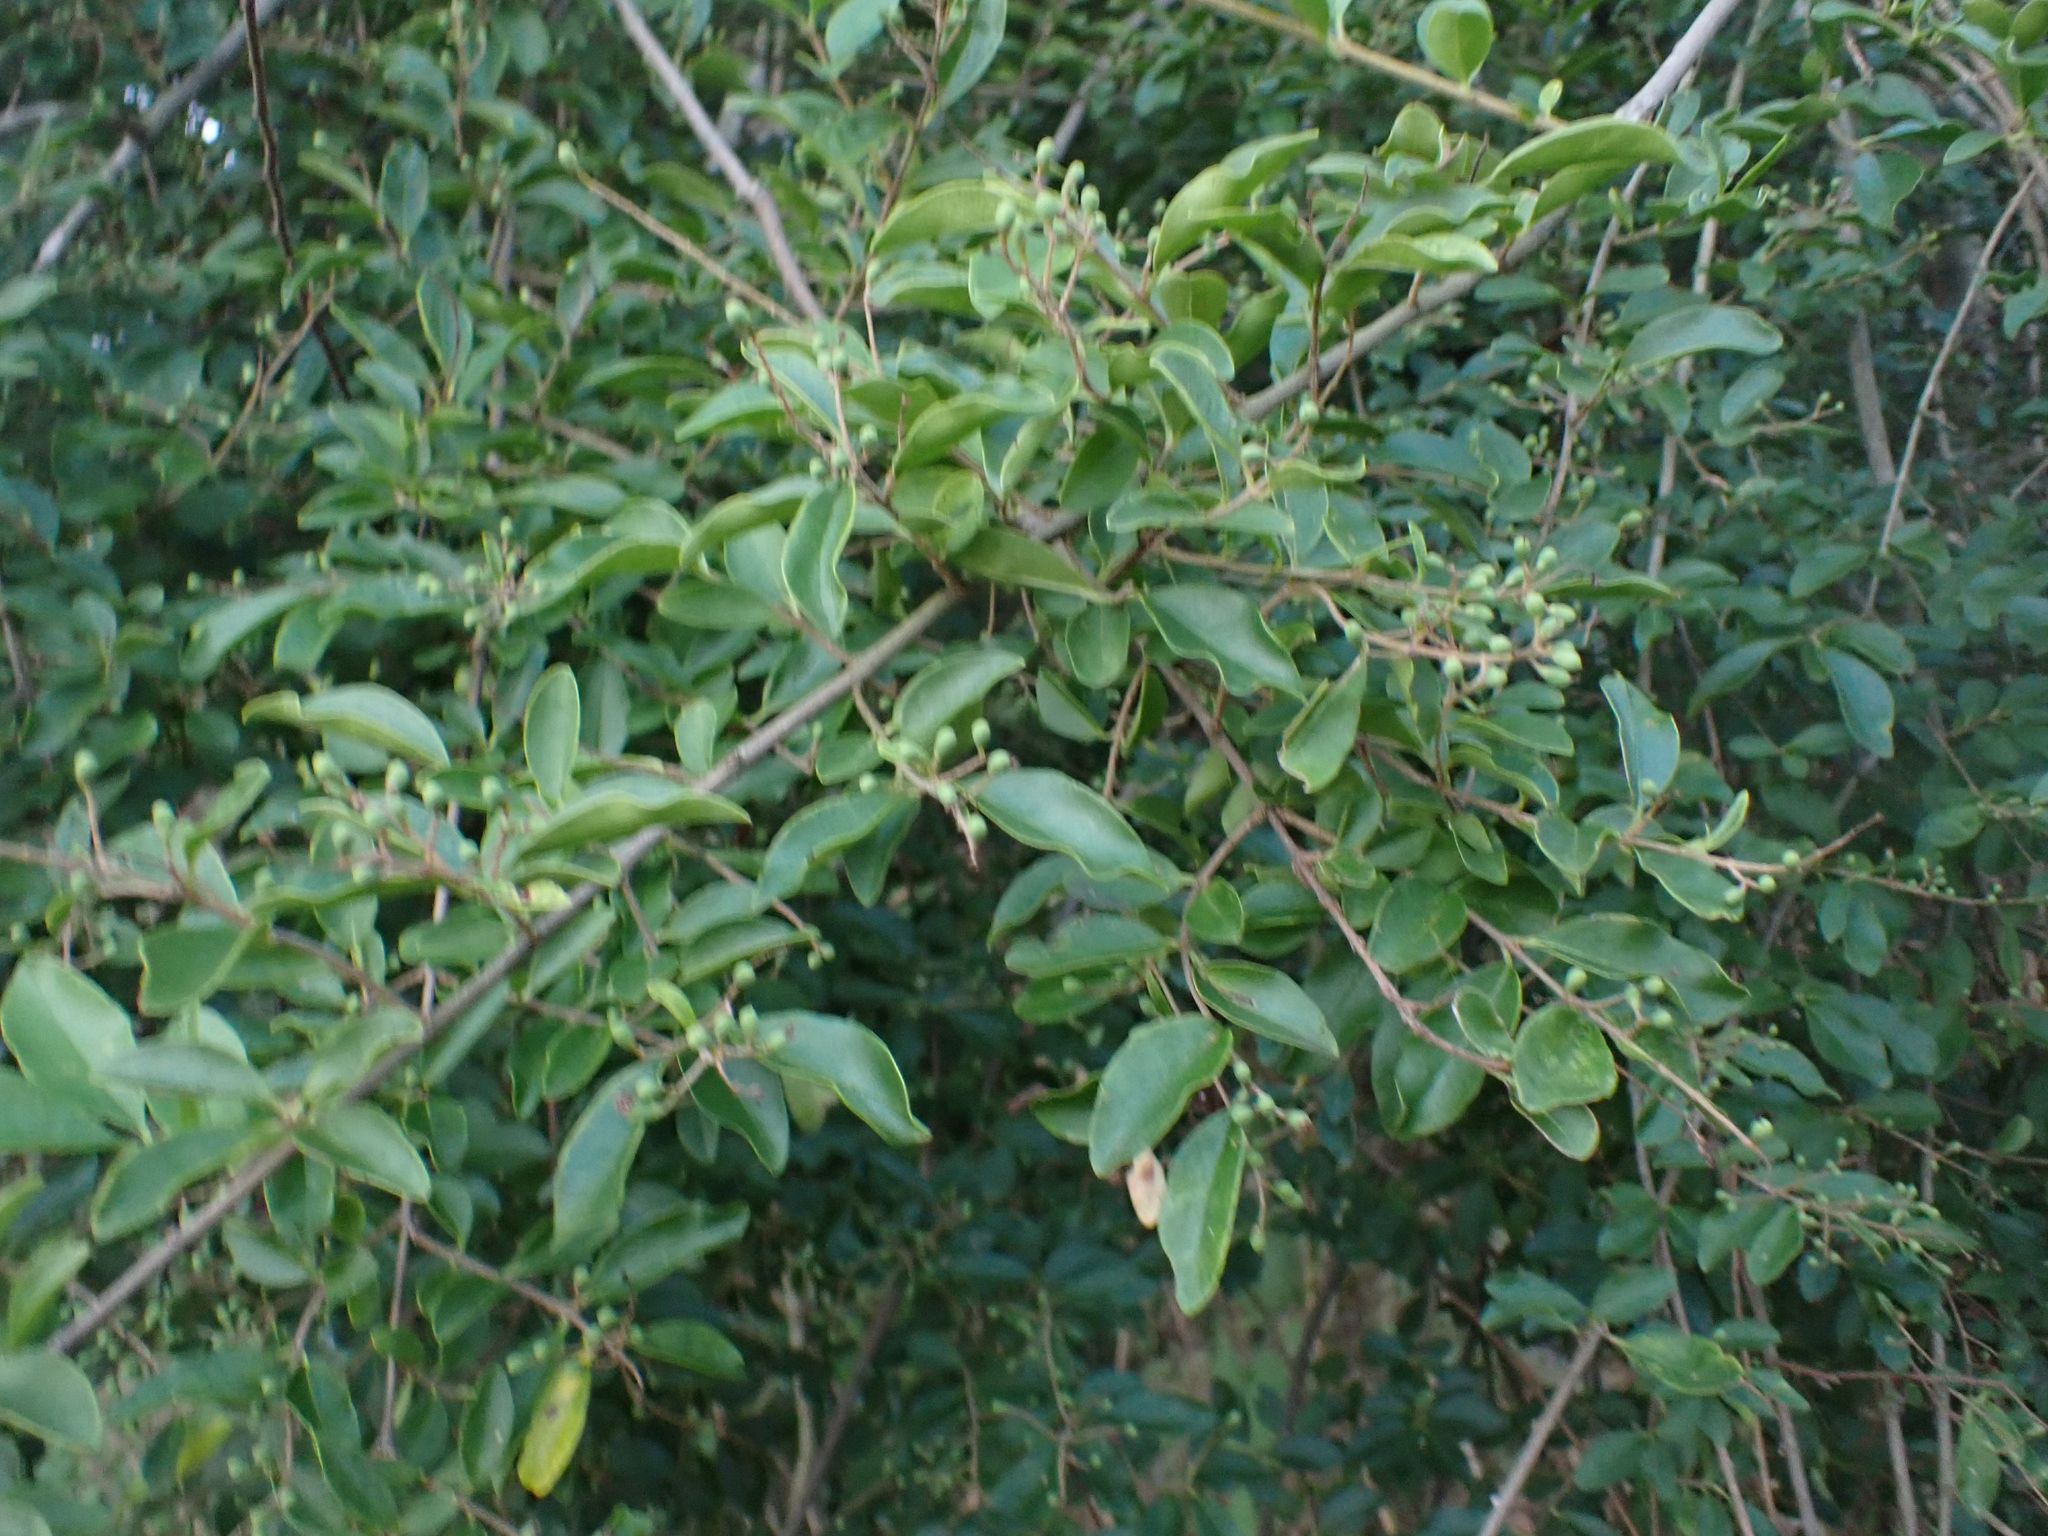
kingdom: Plantae
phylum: Tracheophyta
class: Magnoliopsida
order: Lamiales
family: Oleaceae
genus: Ligustrum
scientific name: Ligustrum sinense
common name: Chinese privet
